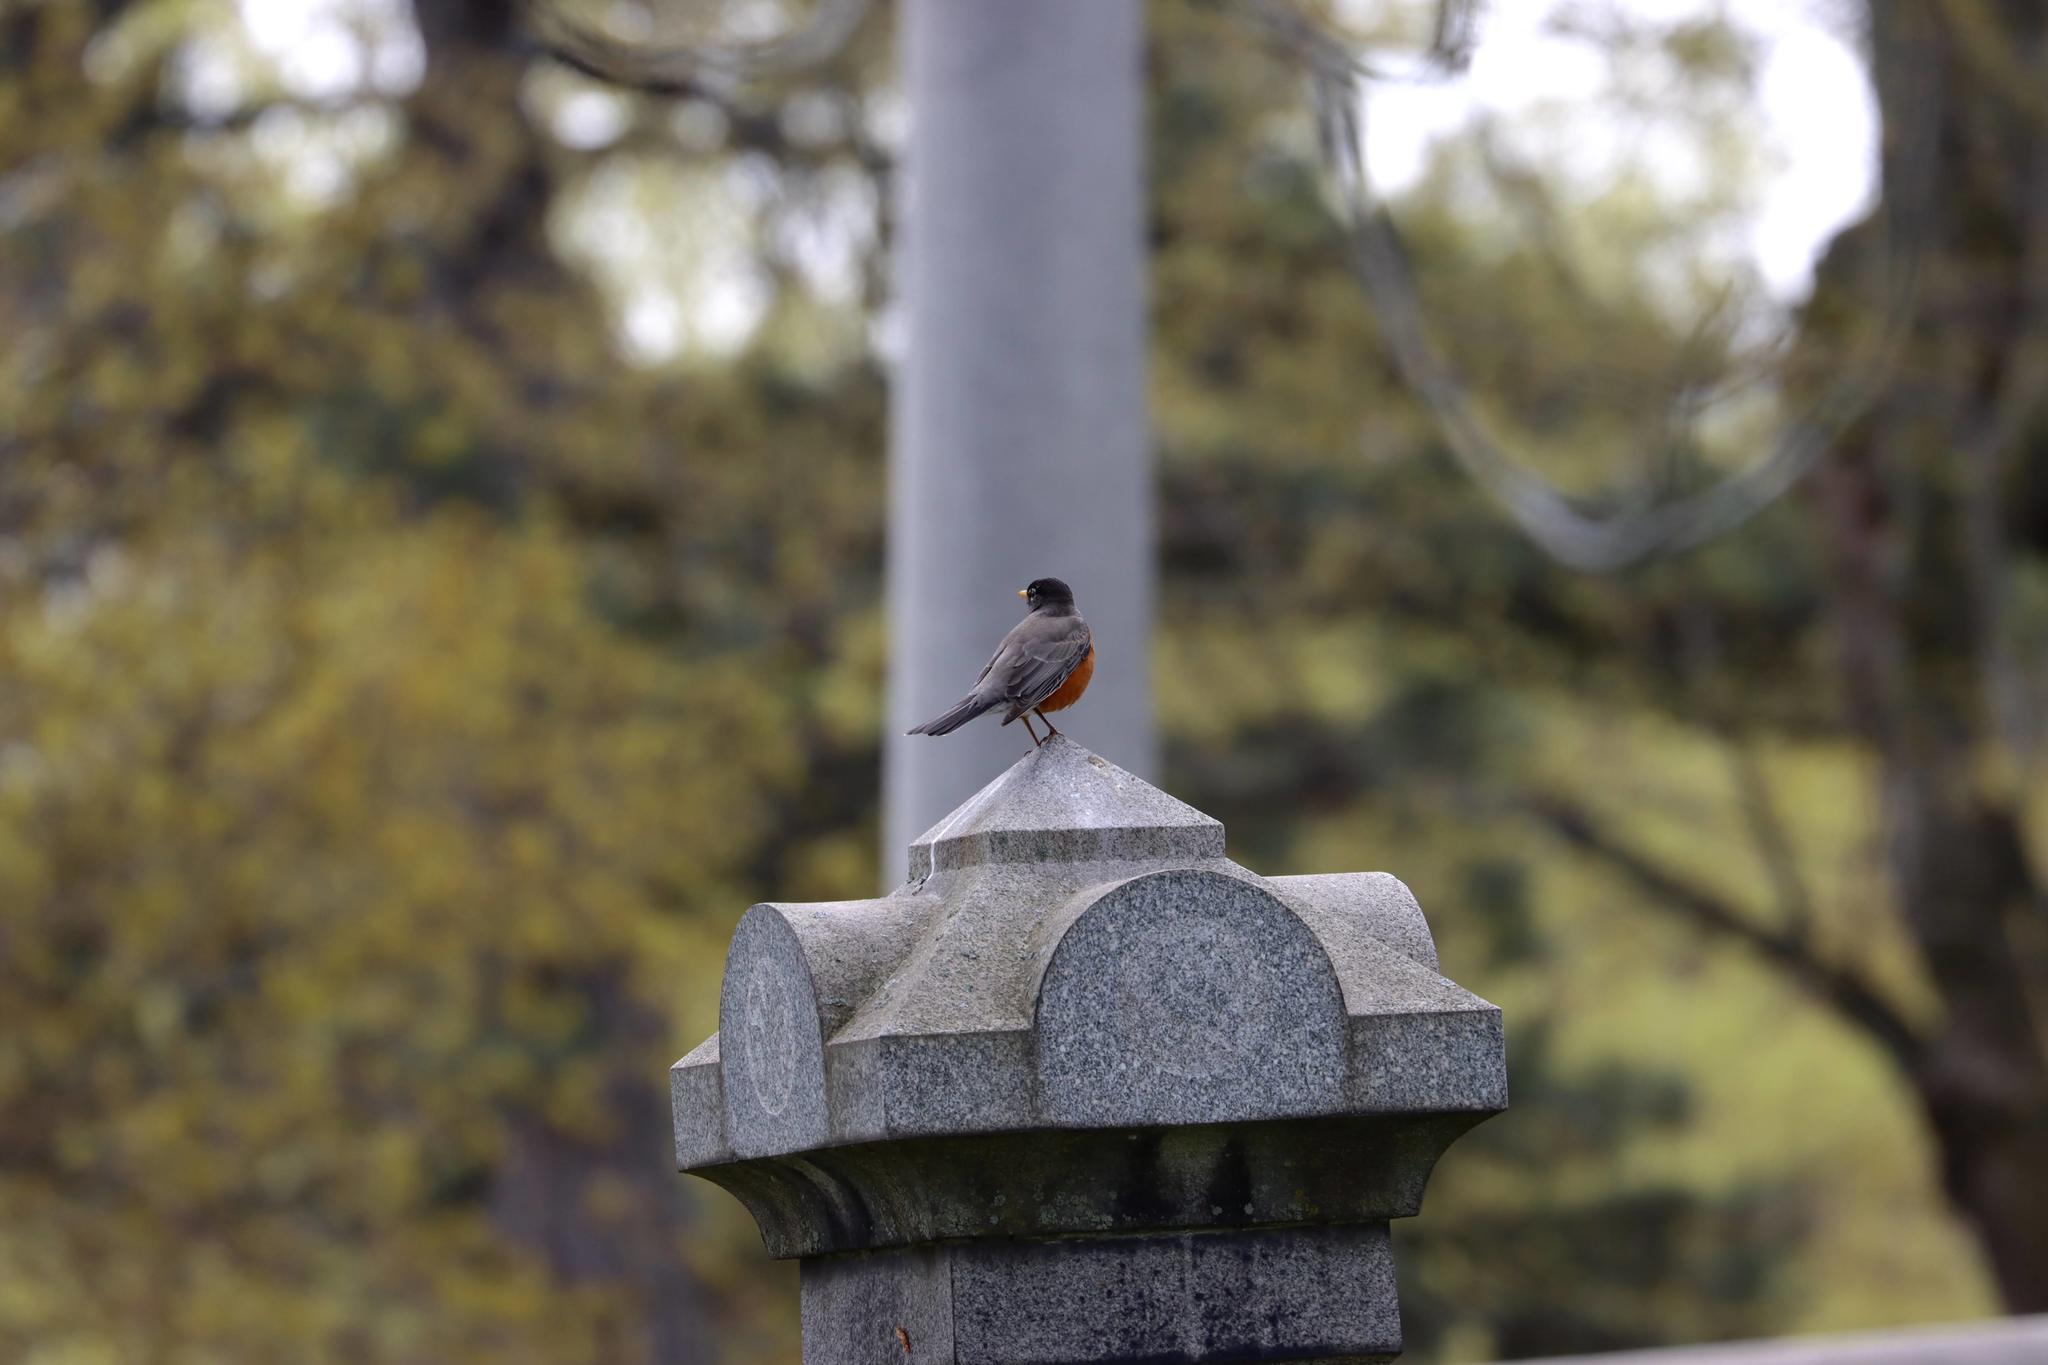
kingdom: Animalia
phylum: Chordata
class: Aves
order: Passeriformes
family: Turdidae
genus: Turdus
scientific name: Turdus migratorius
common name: American robin
